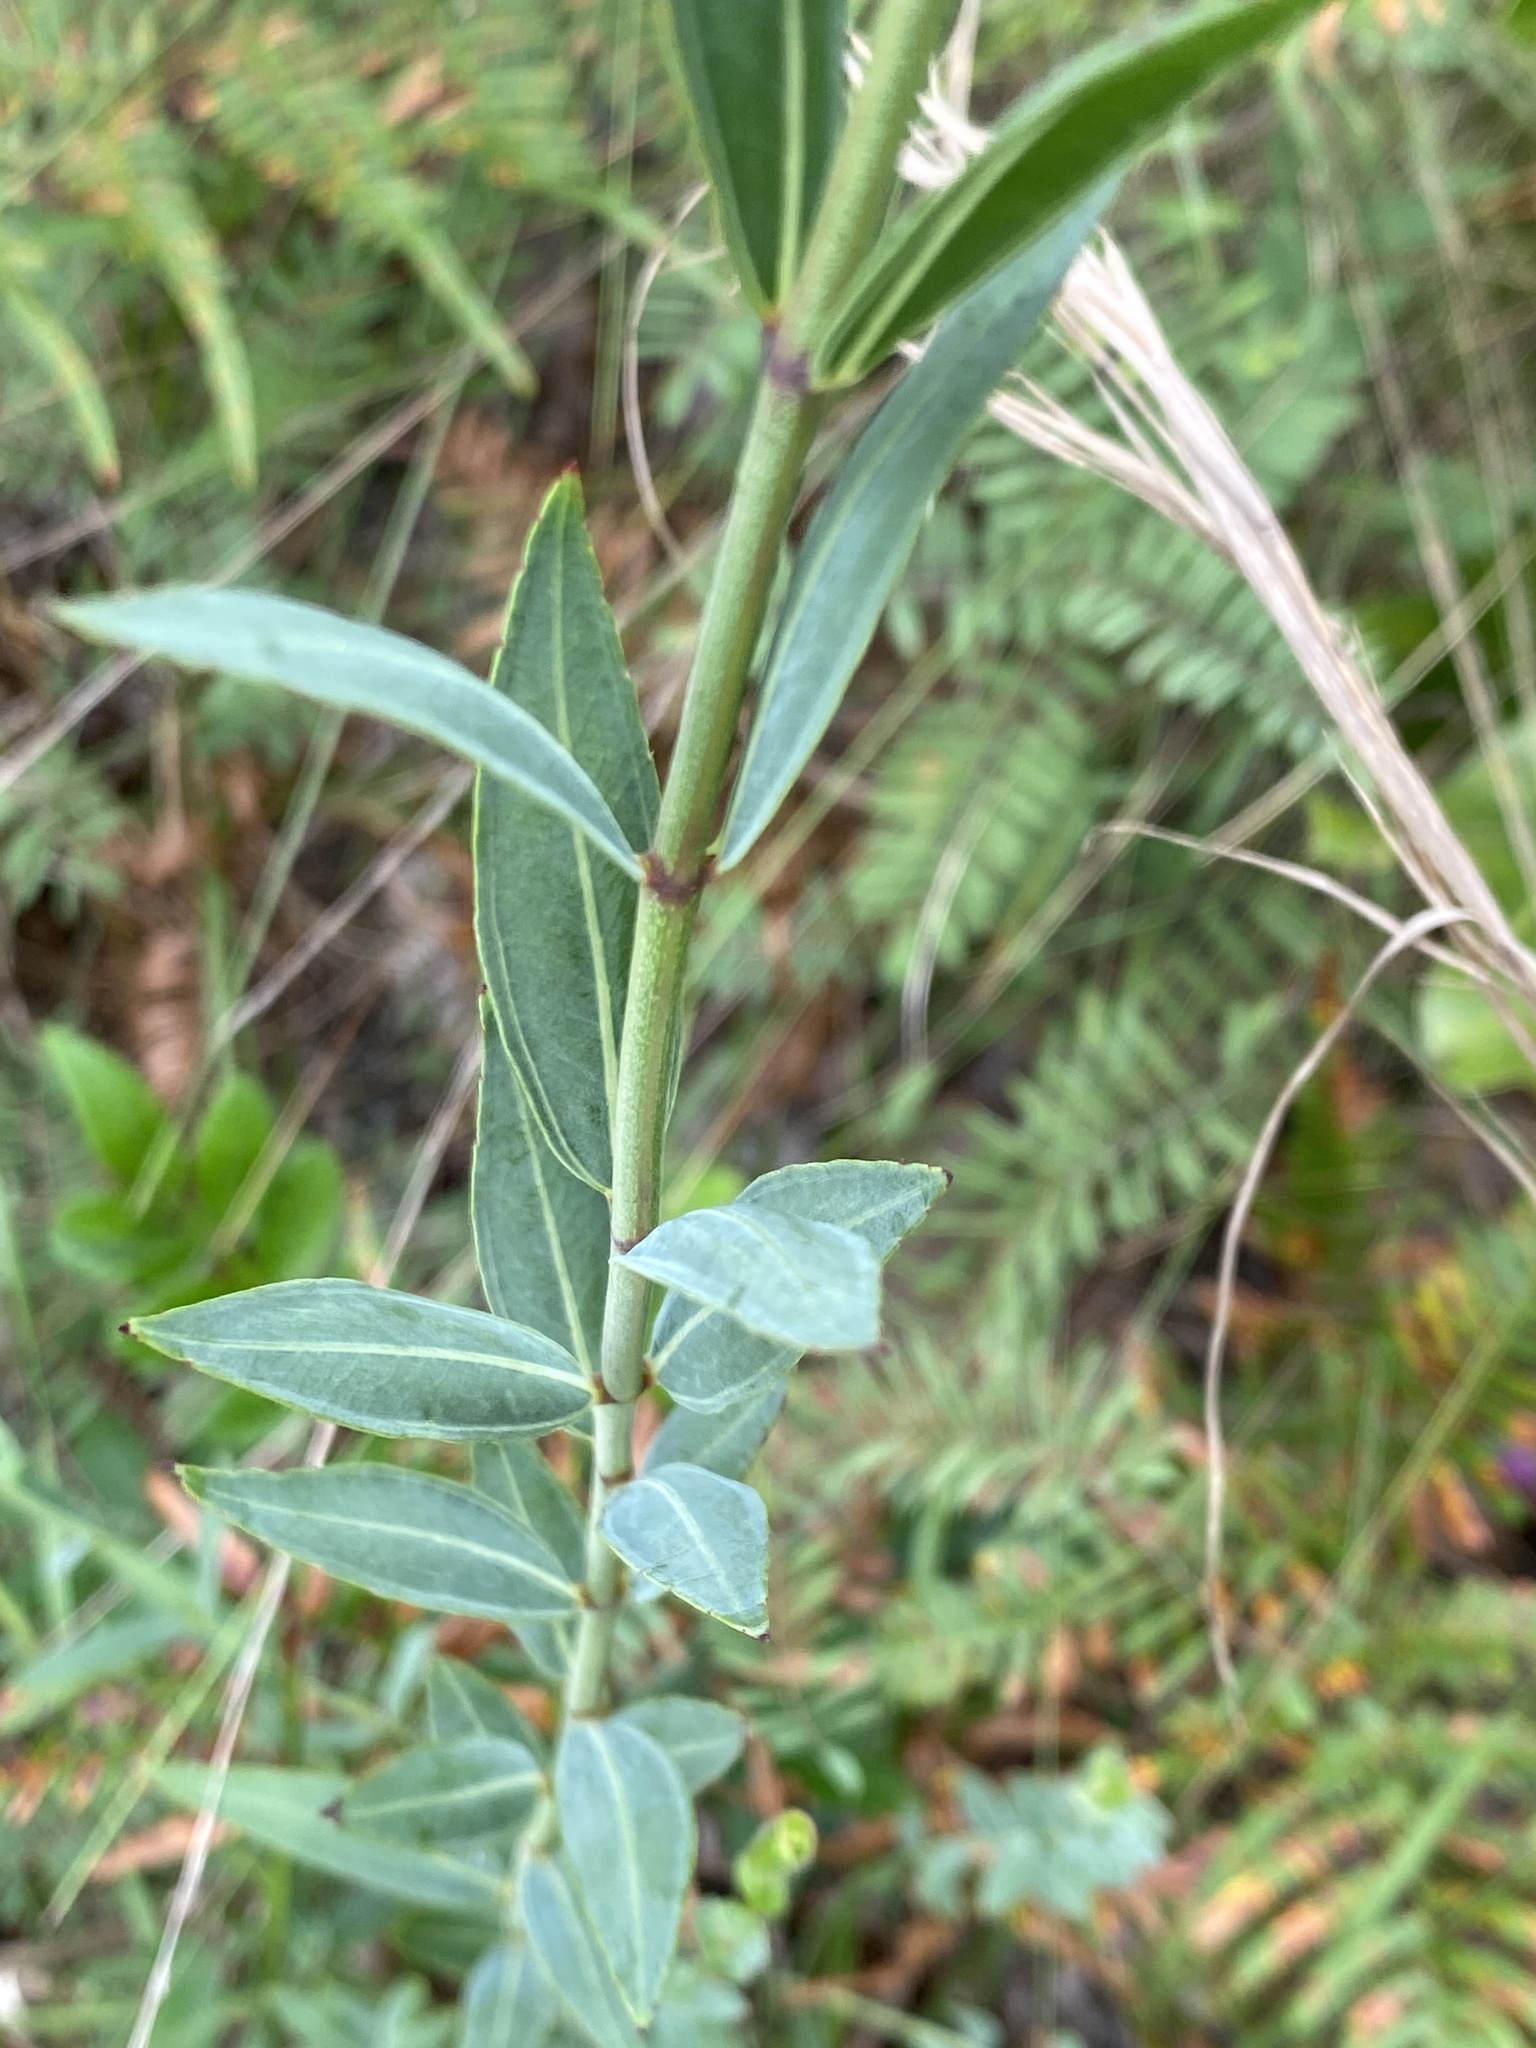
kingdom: Plantae
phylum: Tracheophyta
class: Magnoliopsida
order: Myrtales
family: Melastomataceae
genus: Rhexia
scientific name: Rhexia alifanus
